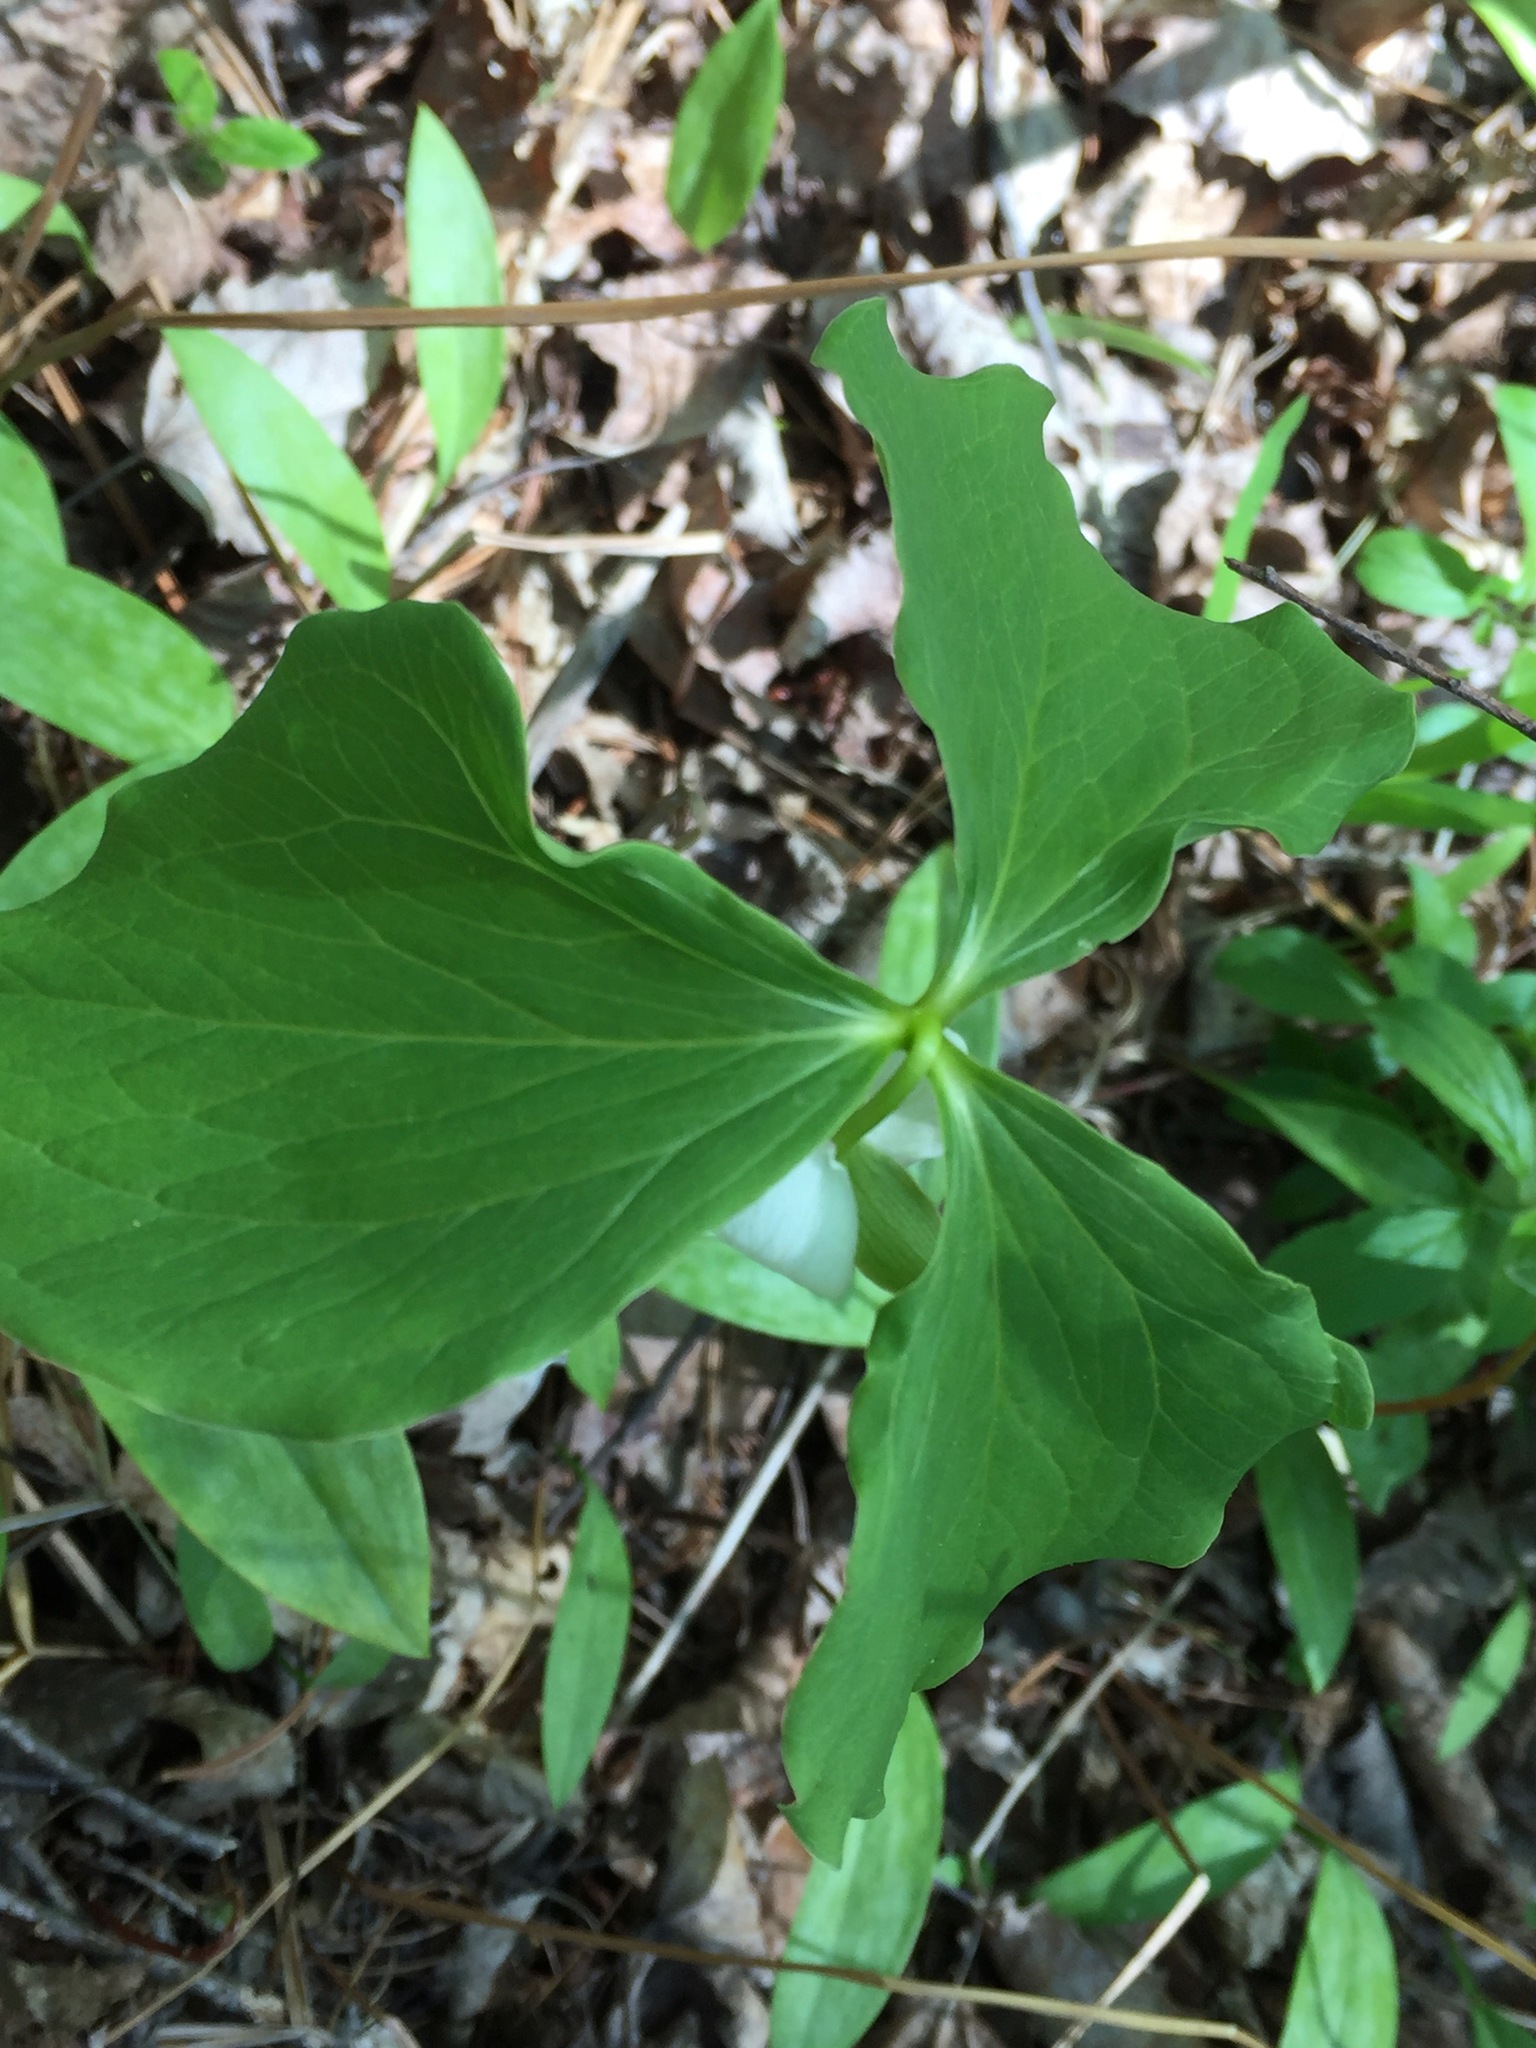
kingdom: Plantae
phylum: Tracheophyta
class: Liliopsida
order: Liliales
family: Melanthiaceae
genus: Trillium
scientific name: Trillium cernuum
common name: Nodding trillium
